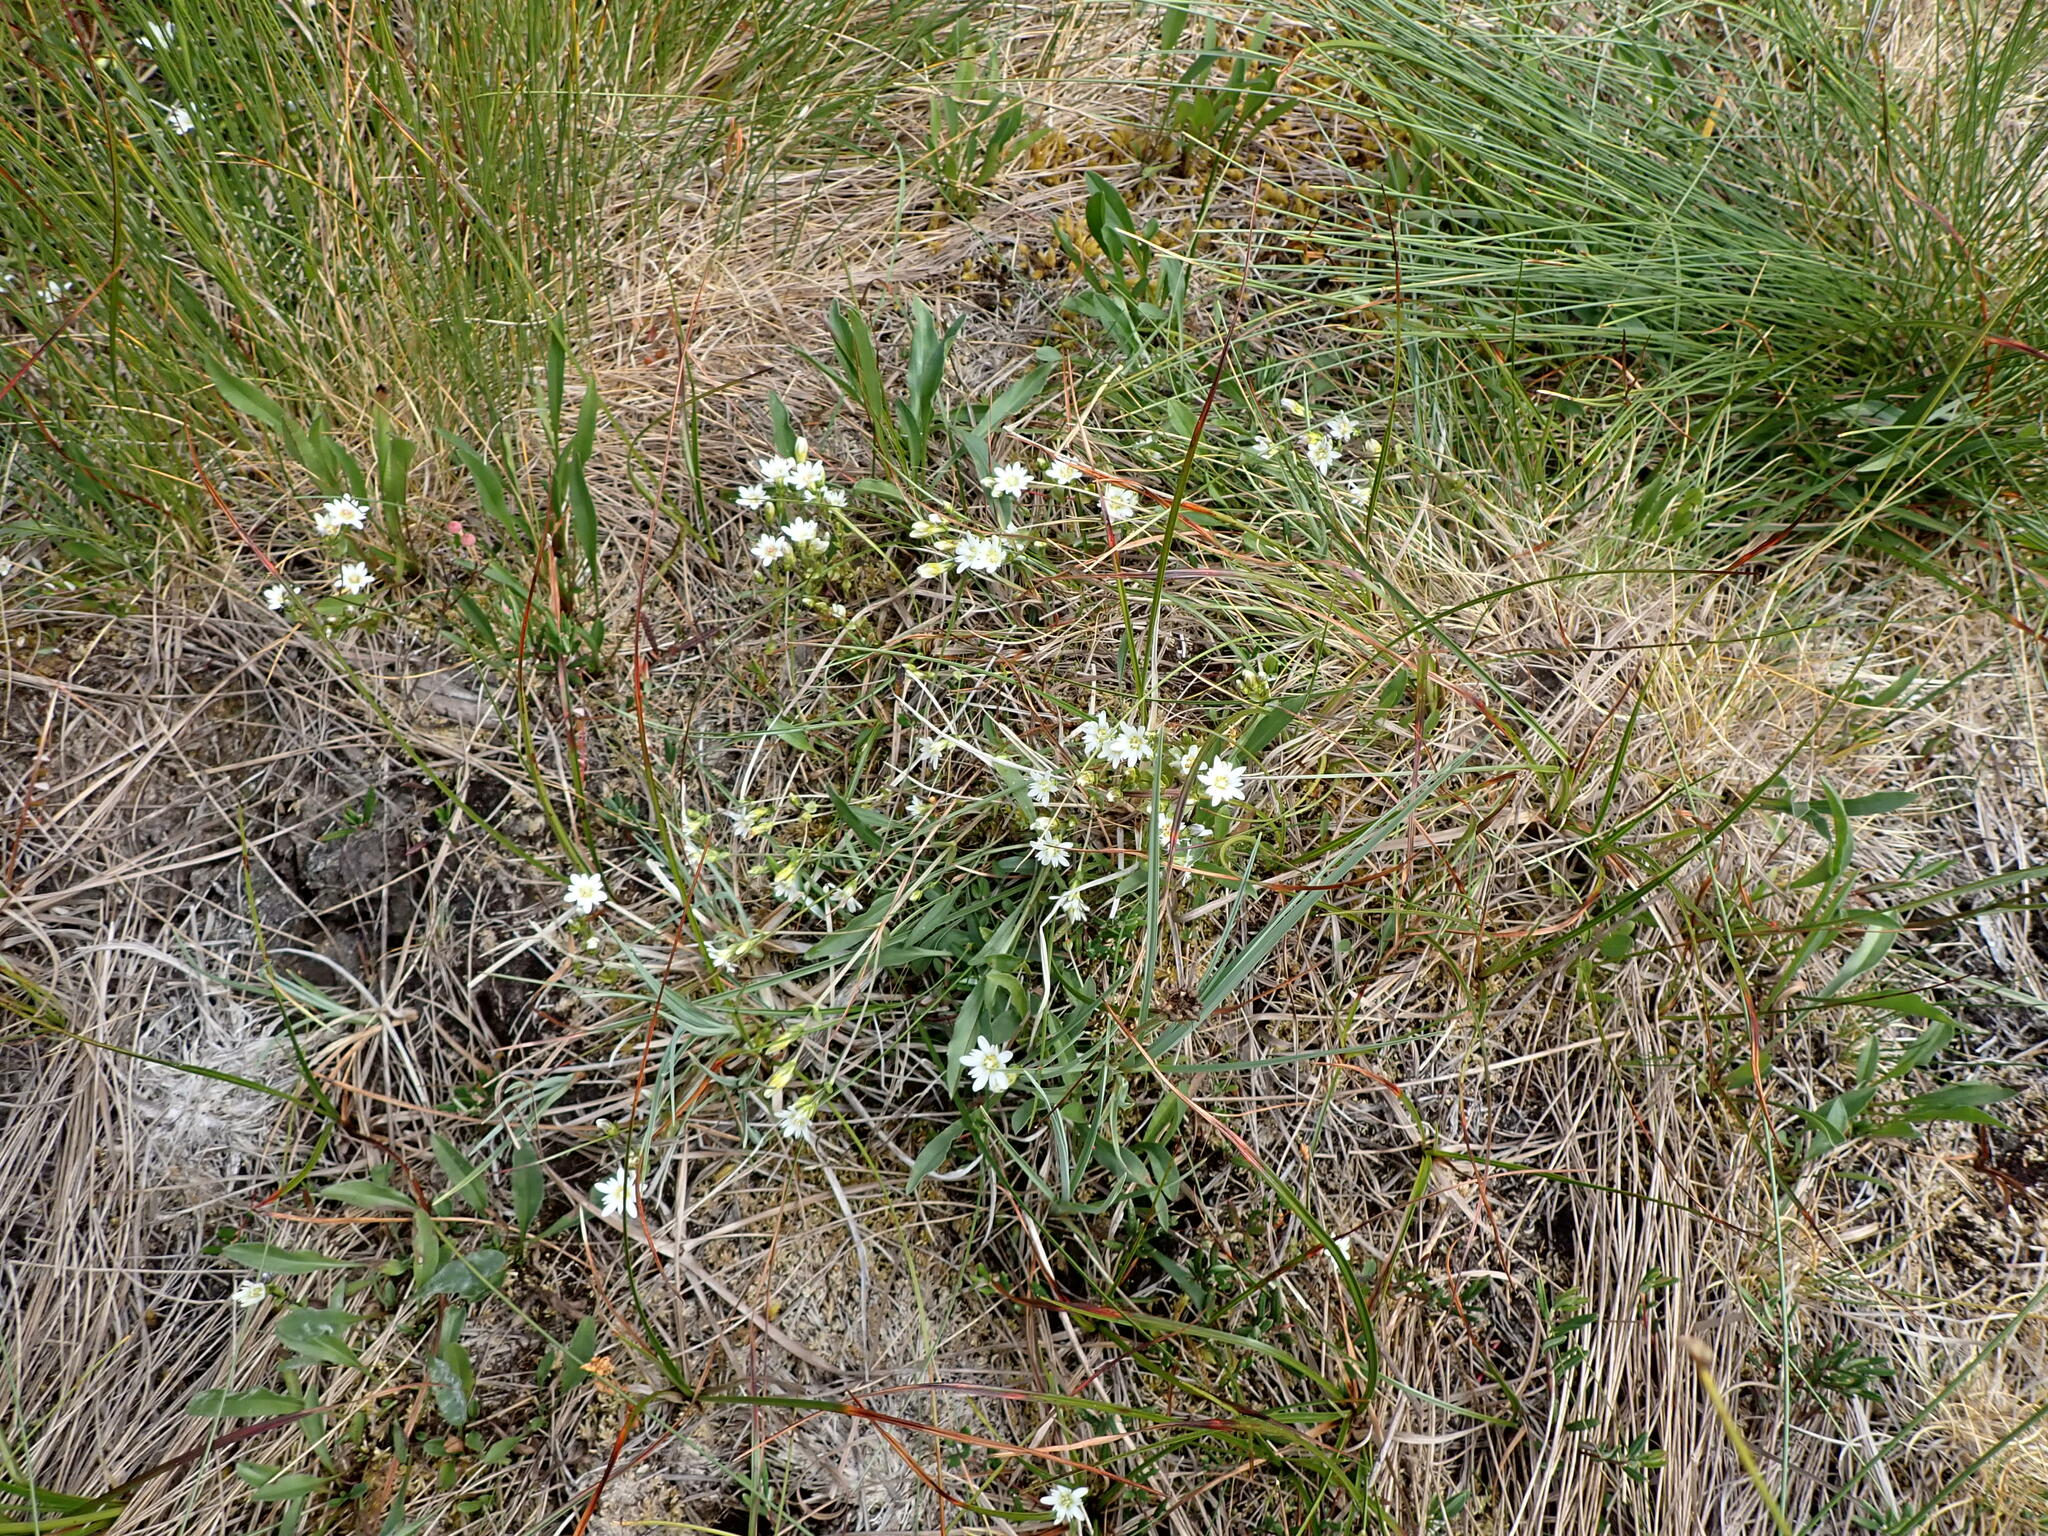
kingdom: Plantae
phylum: Tracheophyta
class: Magnoliopsida
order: Gentianales
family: Gentianaceae
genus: Gentiana
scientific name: Gentiana douglasiana
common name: Swamp gentian
